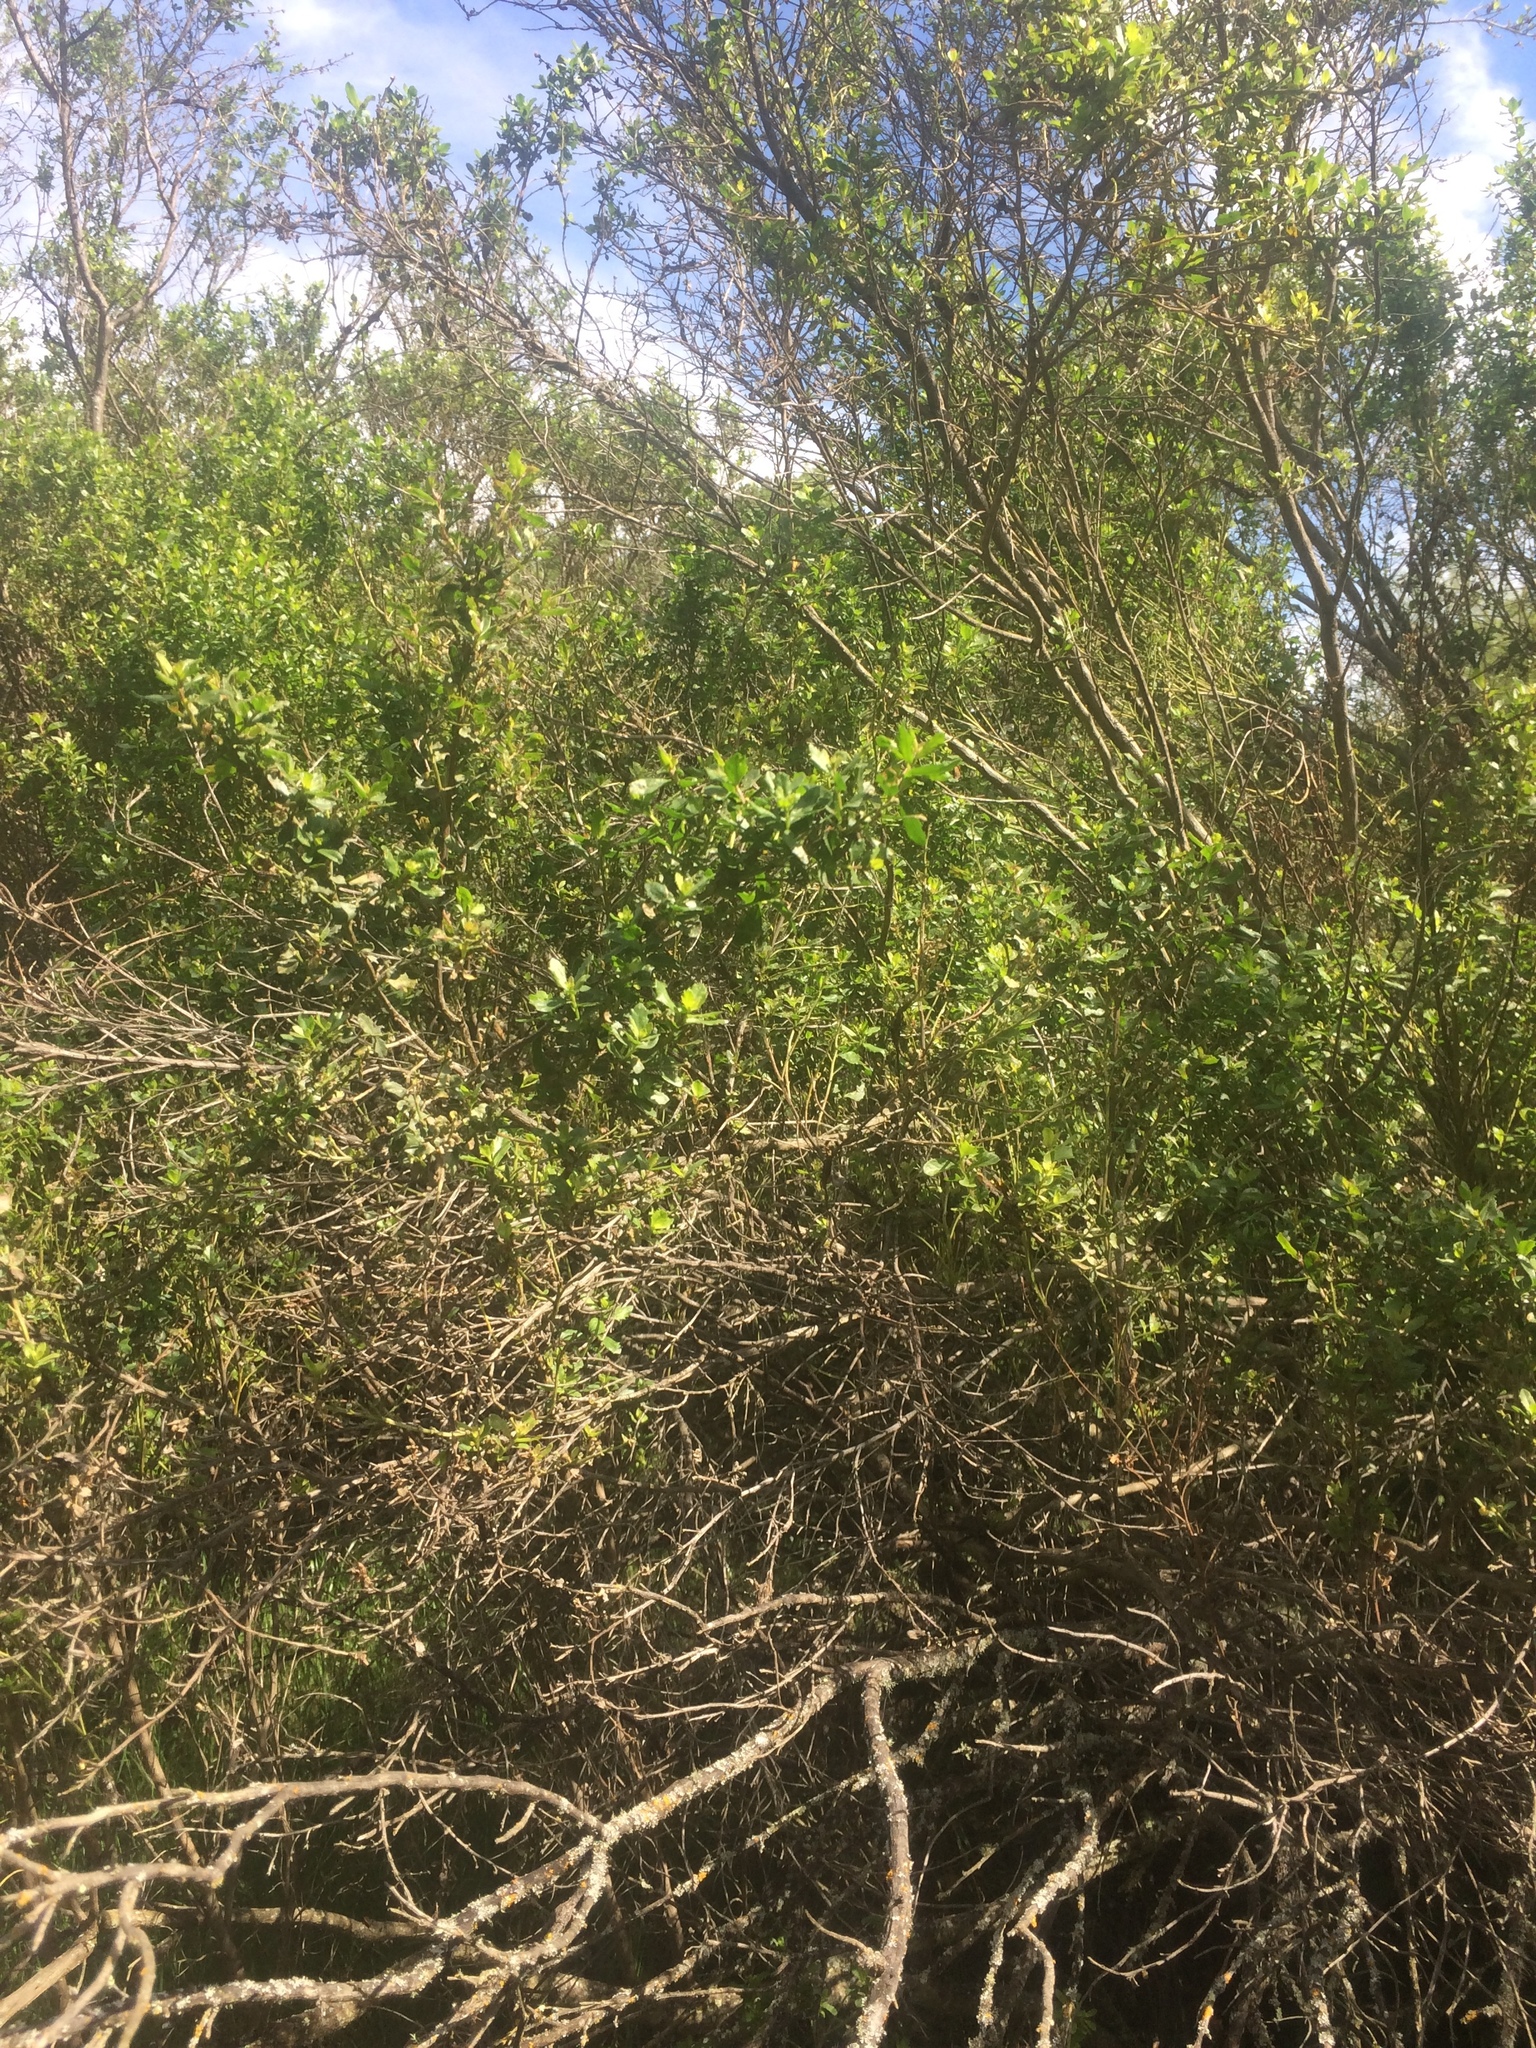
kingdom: Plantae
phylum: Tracheophyta
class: Magnoliopsida
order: Asterales
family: Asteraceae
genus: Baccharis
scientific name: Baccharis pilularis
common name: Coyotebrush
